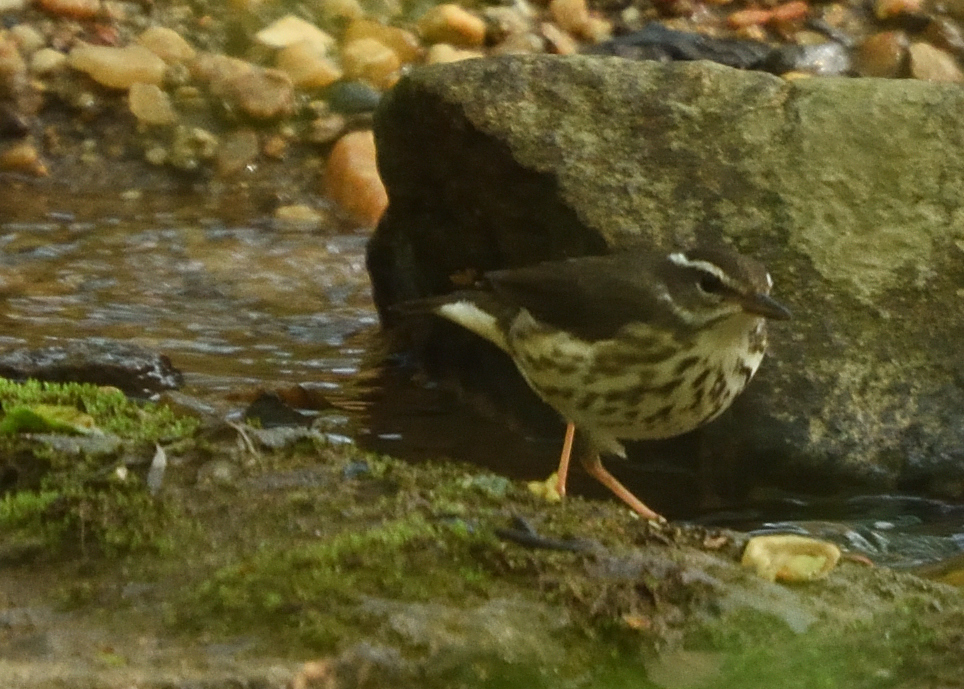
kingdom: Animalia
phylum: Chordata
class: Aves
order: Passeriformes
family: Parulidae
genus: Parkesia
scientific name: Parkesia motacilla
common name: Louisiana waterthrush
